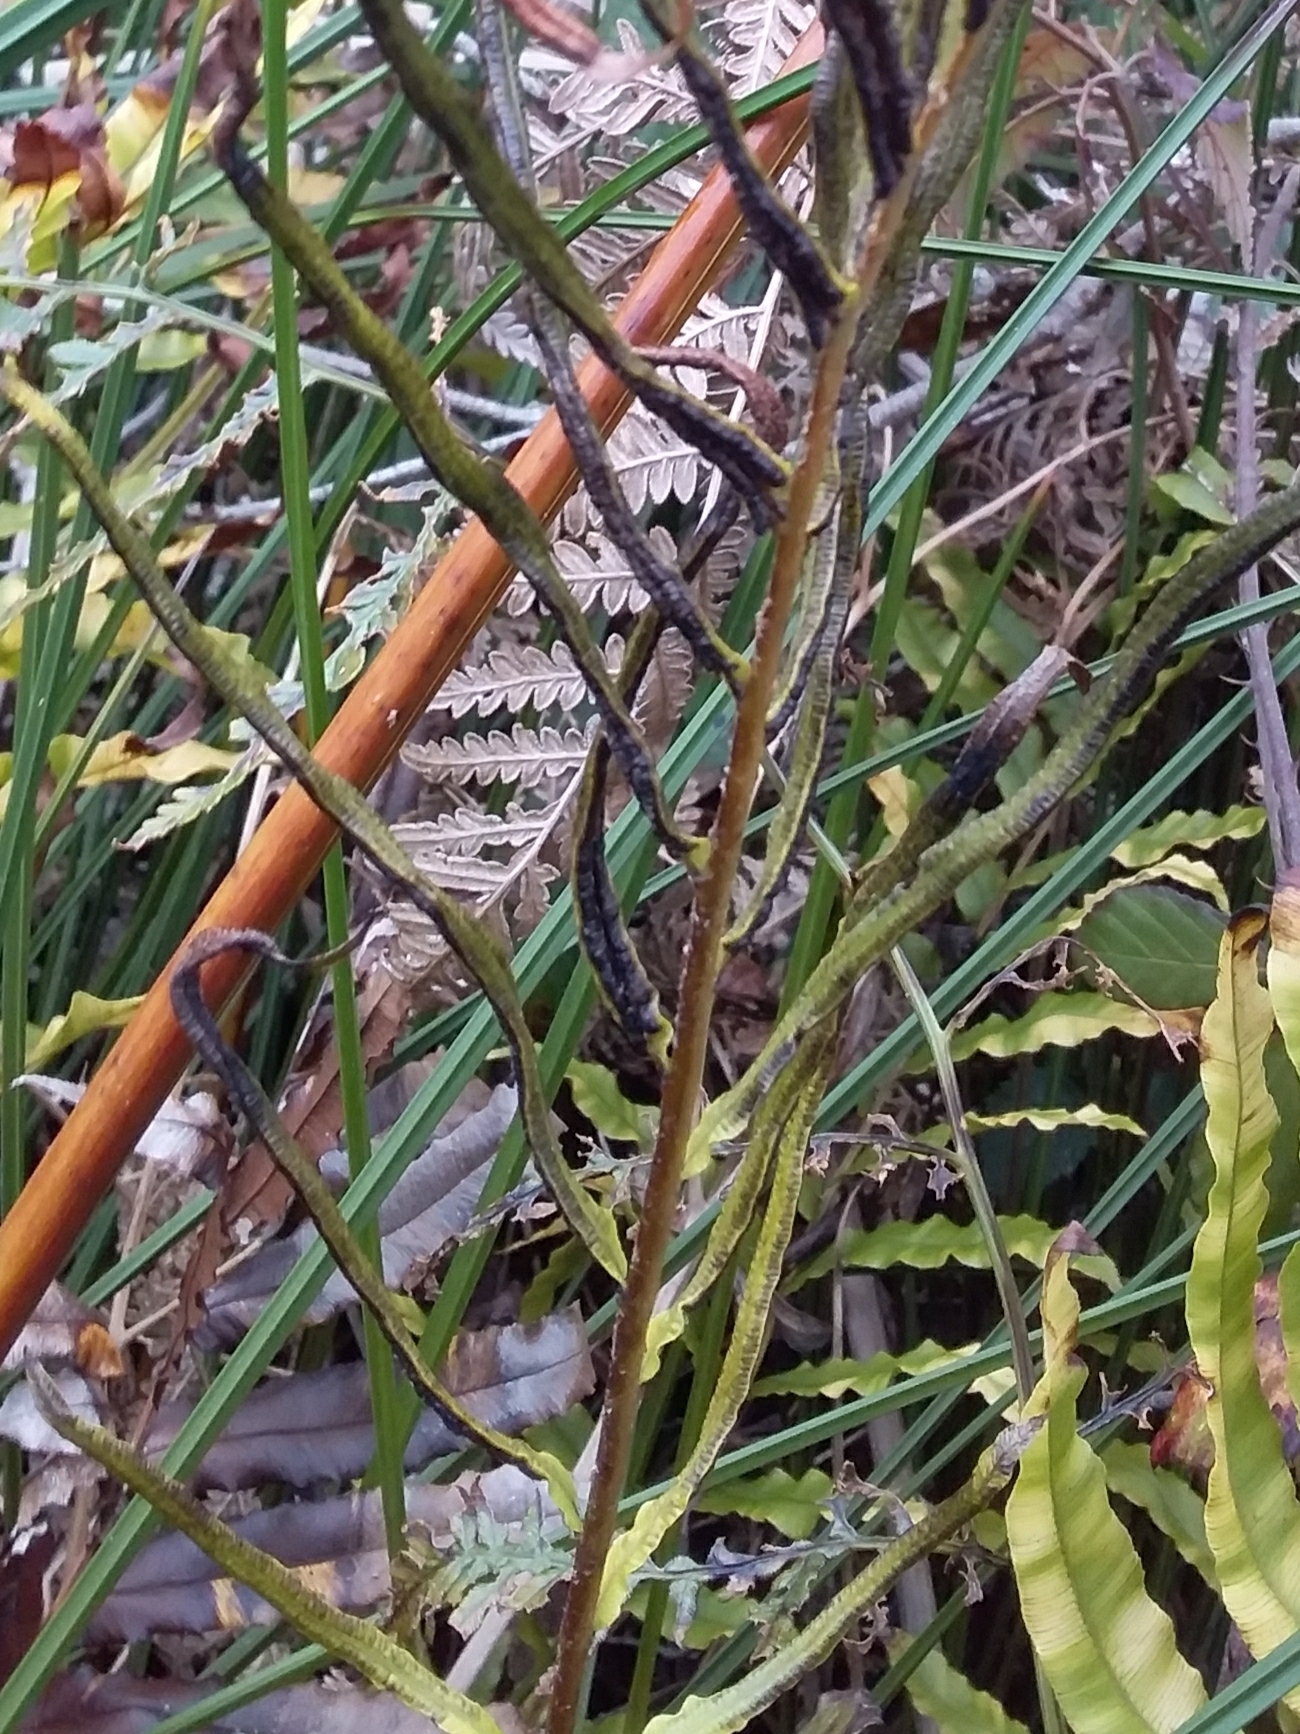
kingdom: Plantae
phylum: Tracheophyta
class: Polypodiopsida
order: Polypodiales
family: Blechnaceae
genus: Parablechnum
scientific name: Parablechnum minus
